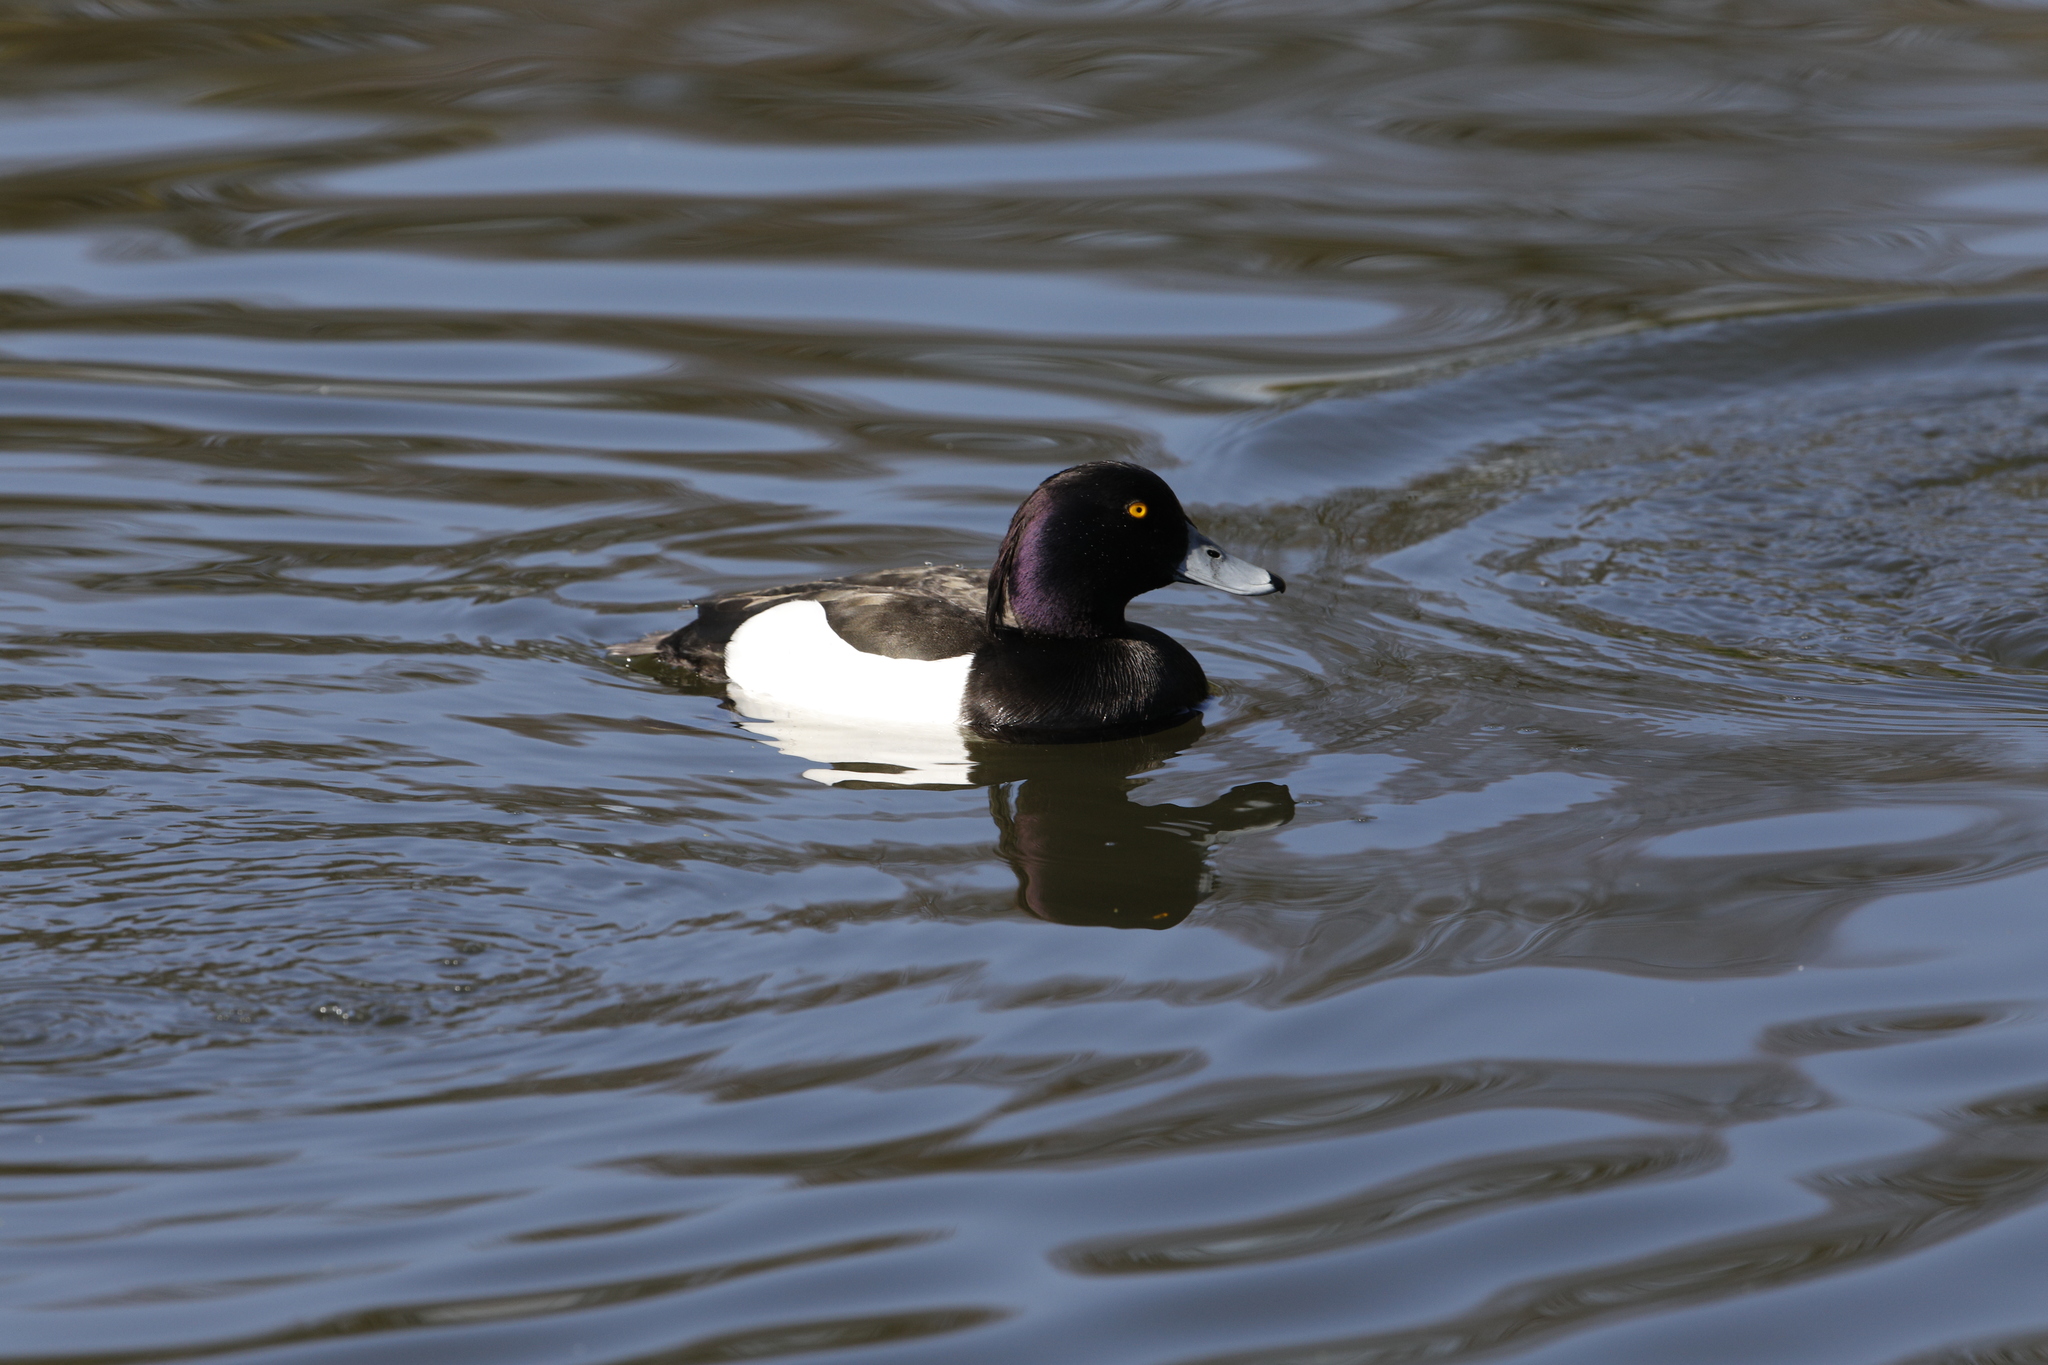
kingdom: Animalia
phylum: Chordata
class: Aves
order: Anseriformes
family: Anatidae
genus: Aythya
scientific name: Aythya fuligula
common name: Tufted duck
